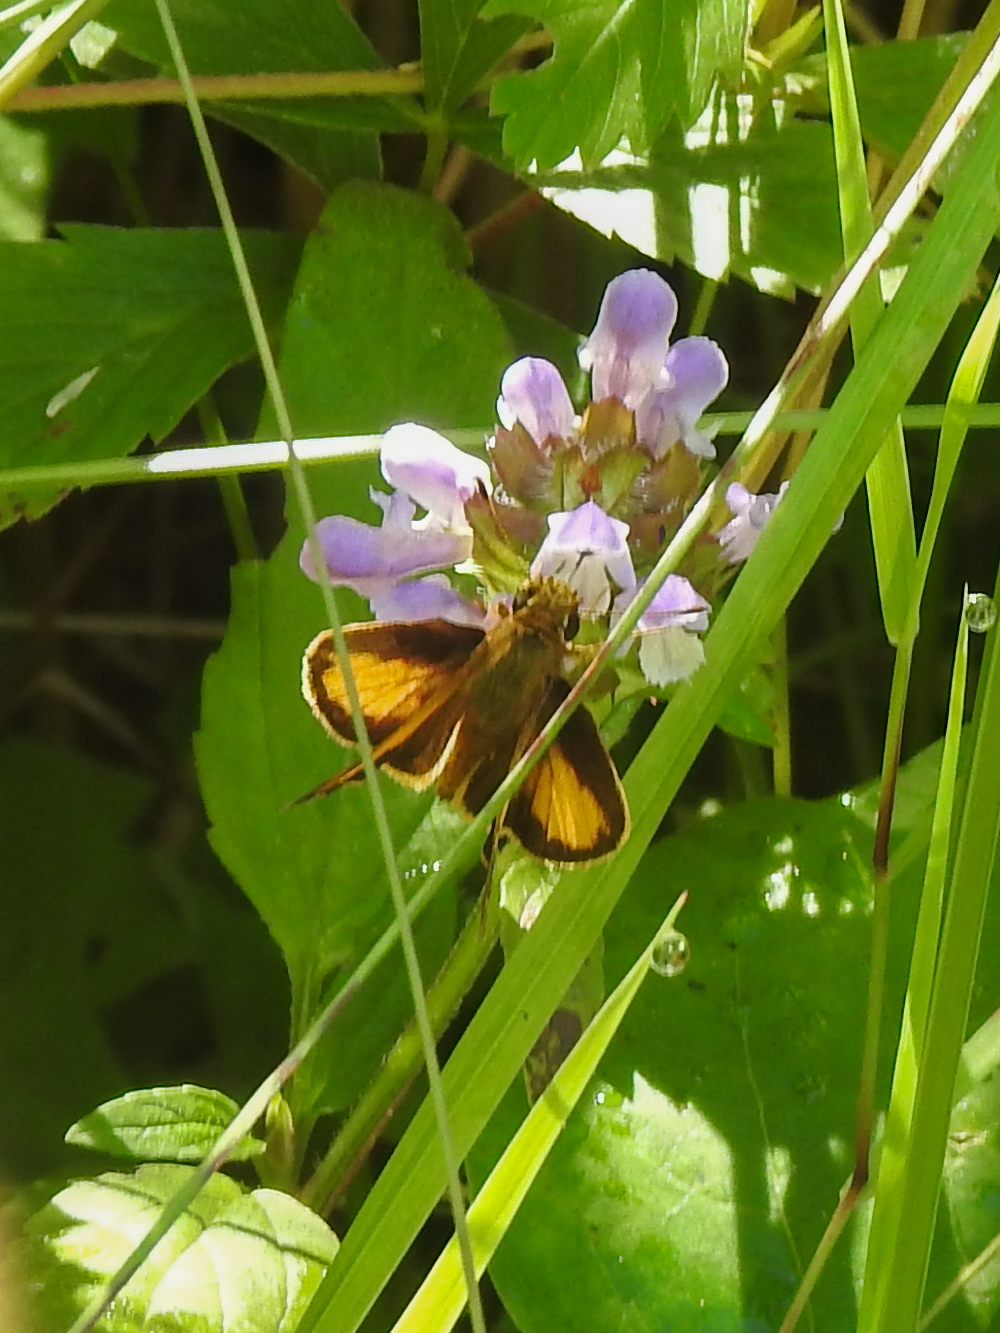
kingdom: Animalia
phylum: Arthropoda
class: Insecta
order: Lepidoptera
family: Hesperiidae
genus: Lon
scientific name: Lon zabulon
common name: Zabulon skipper
